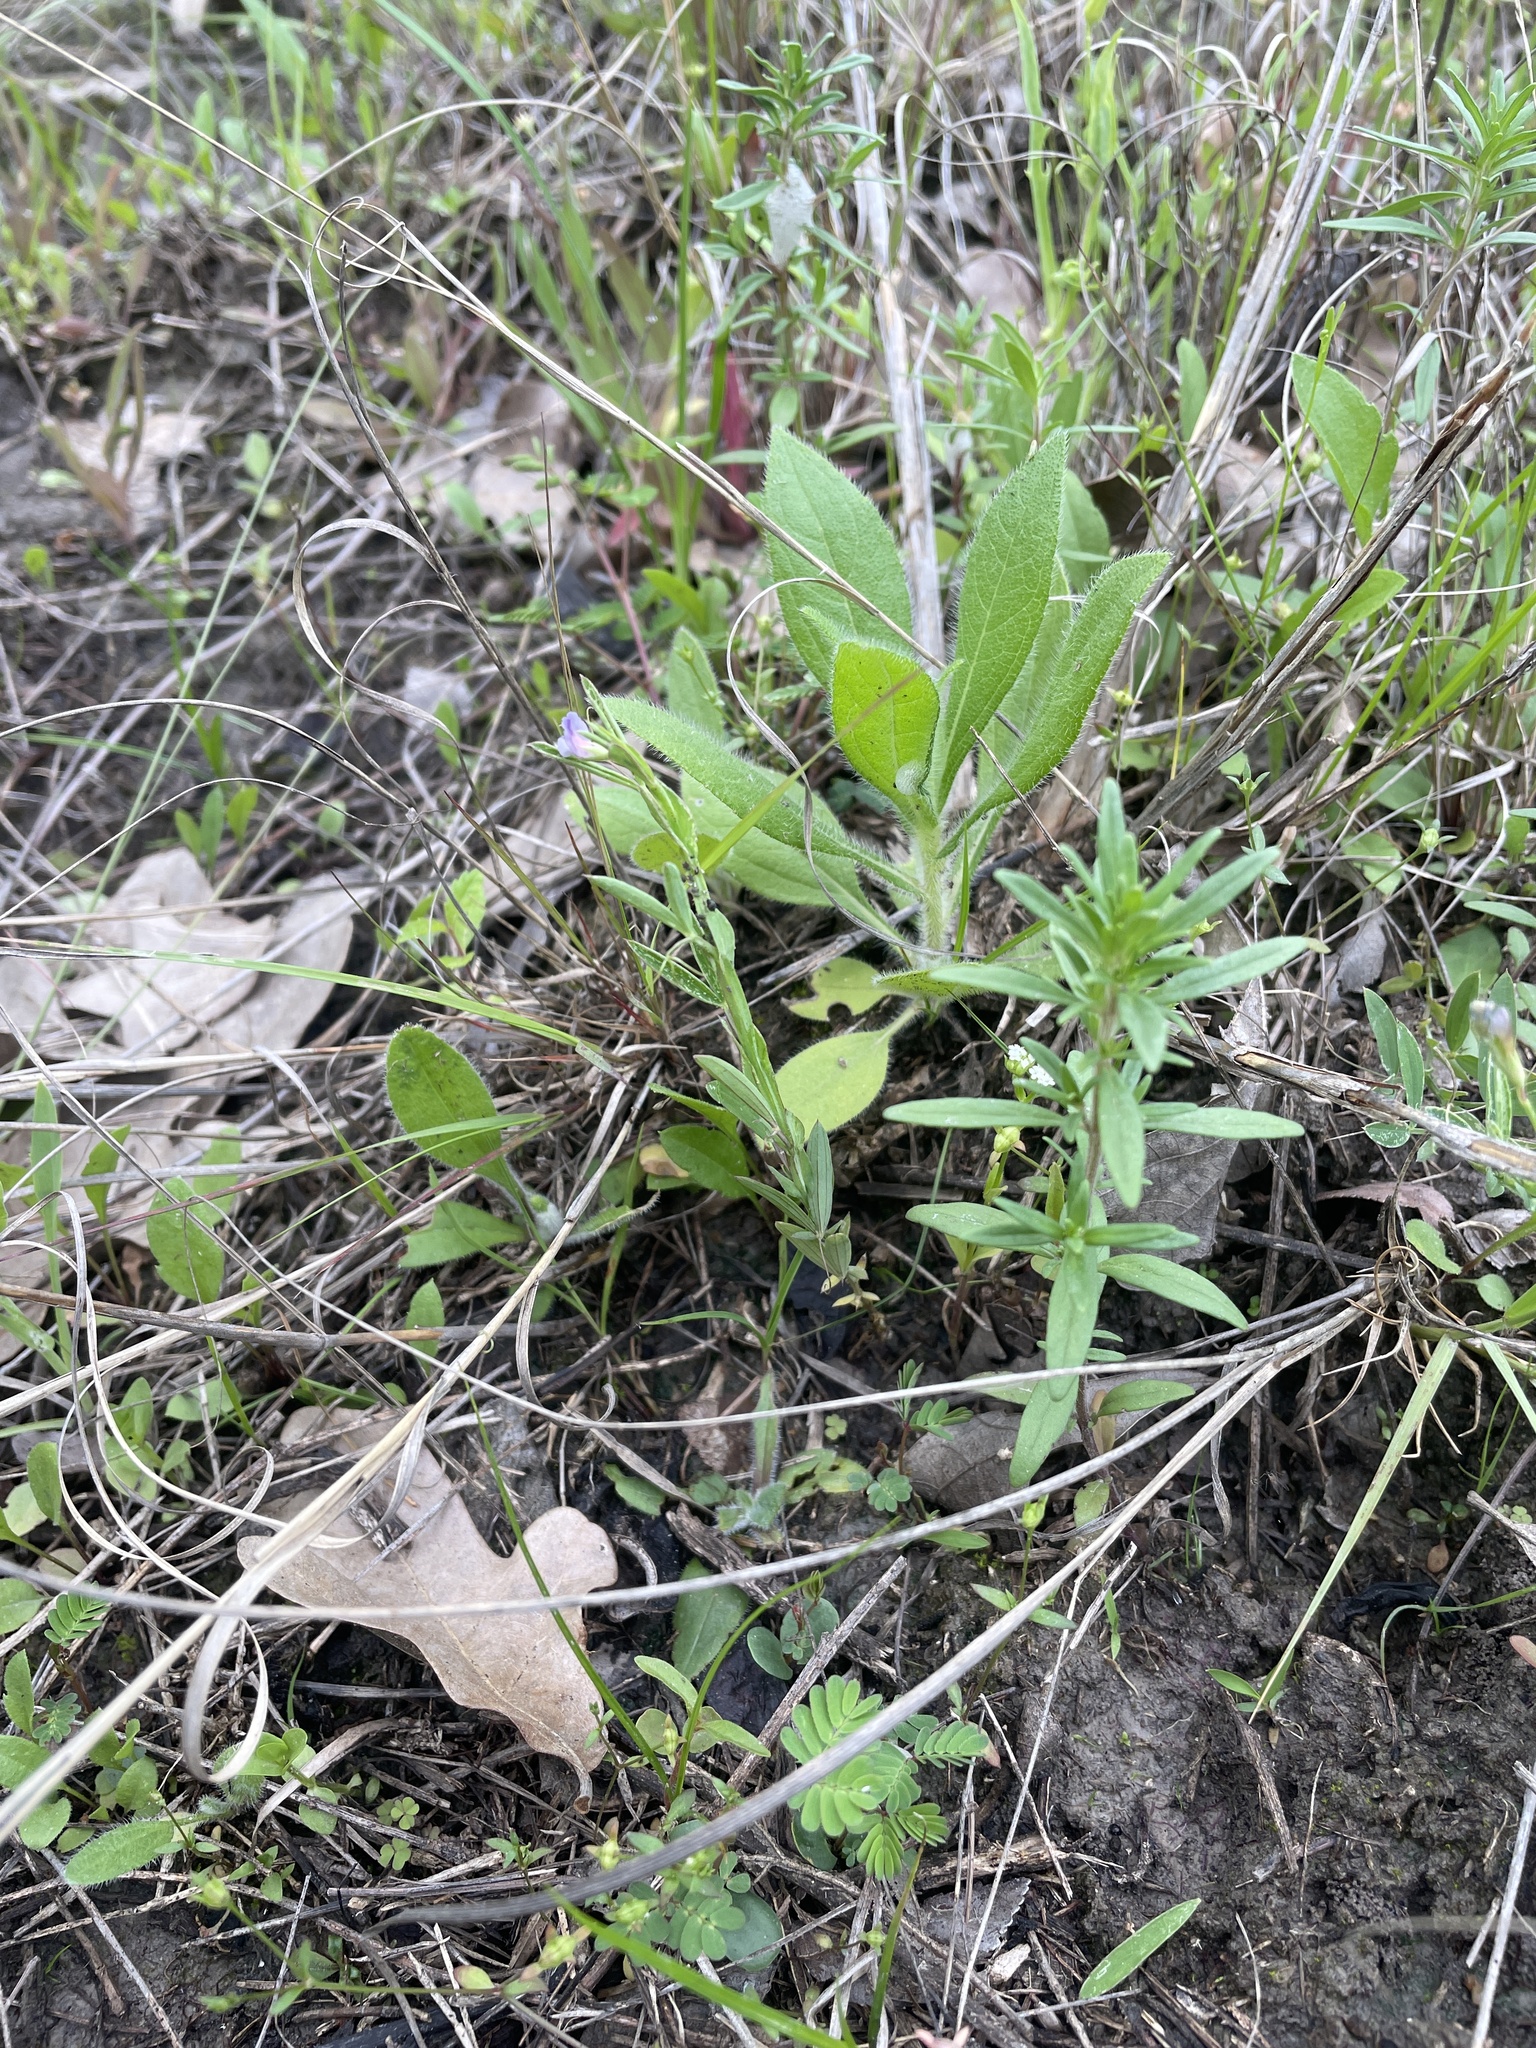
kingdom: Plantae
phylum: Tracheophyta
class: Magnoliopsida
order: Fabales
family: Fabaceae
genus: Lathyrus
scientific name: Lathyrus pusillus
